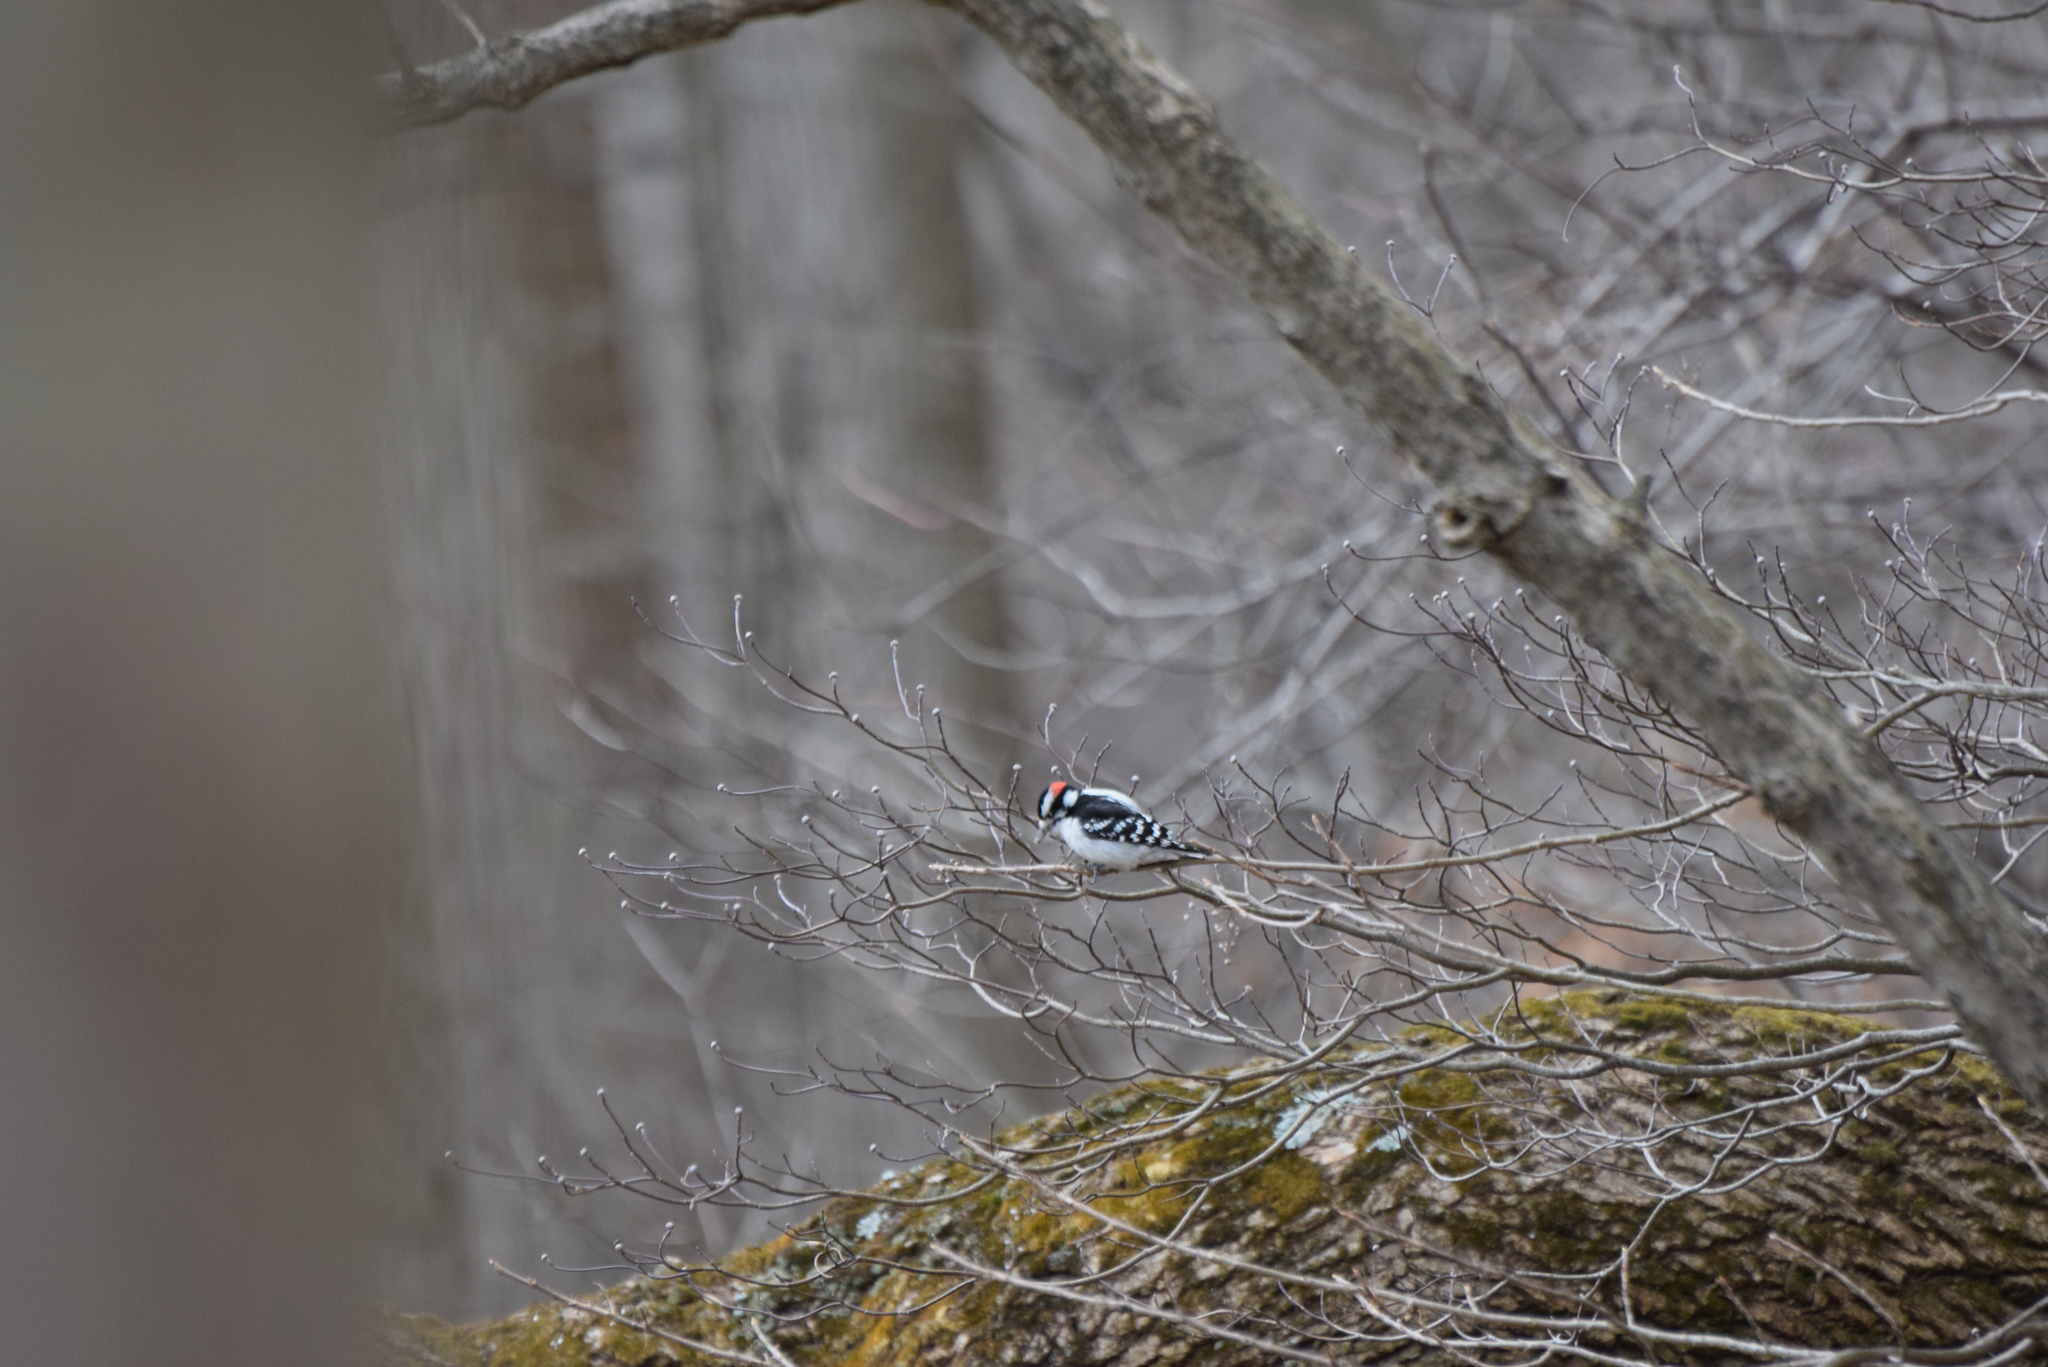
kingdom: Animalia
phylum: Chordata
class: Aves
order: Piciformes
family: Picidae
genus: Dryobates
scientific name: Dryobates pubescens
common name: Downy woodpecker
